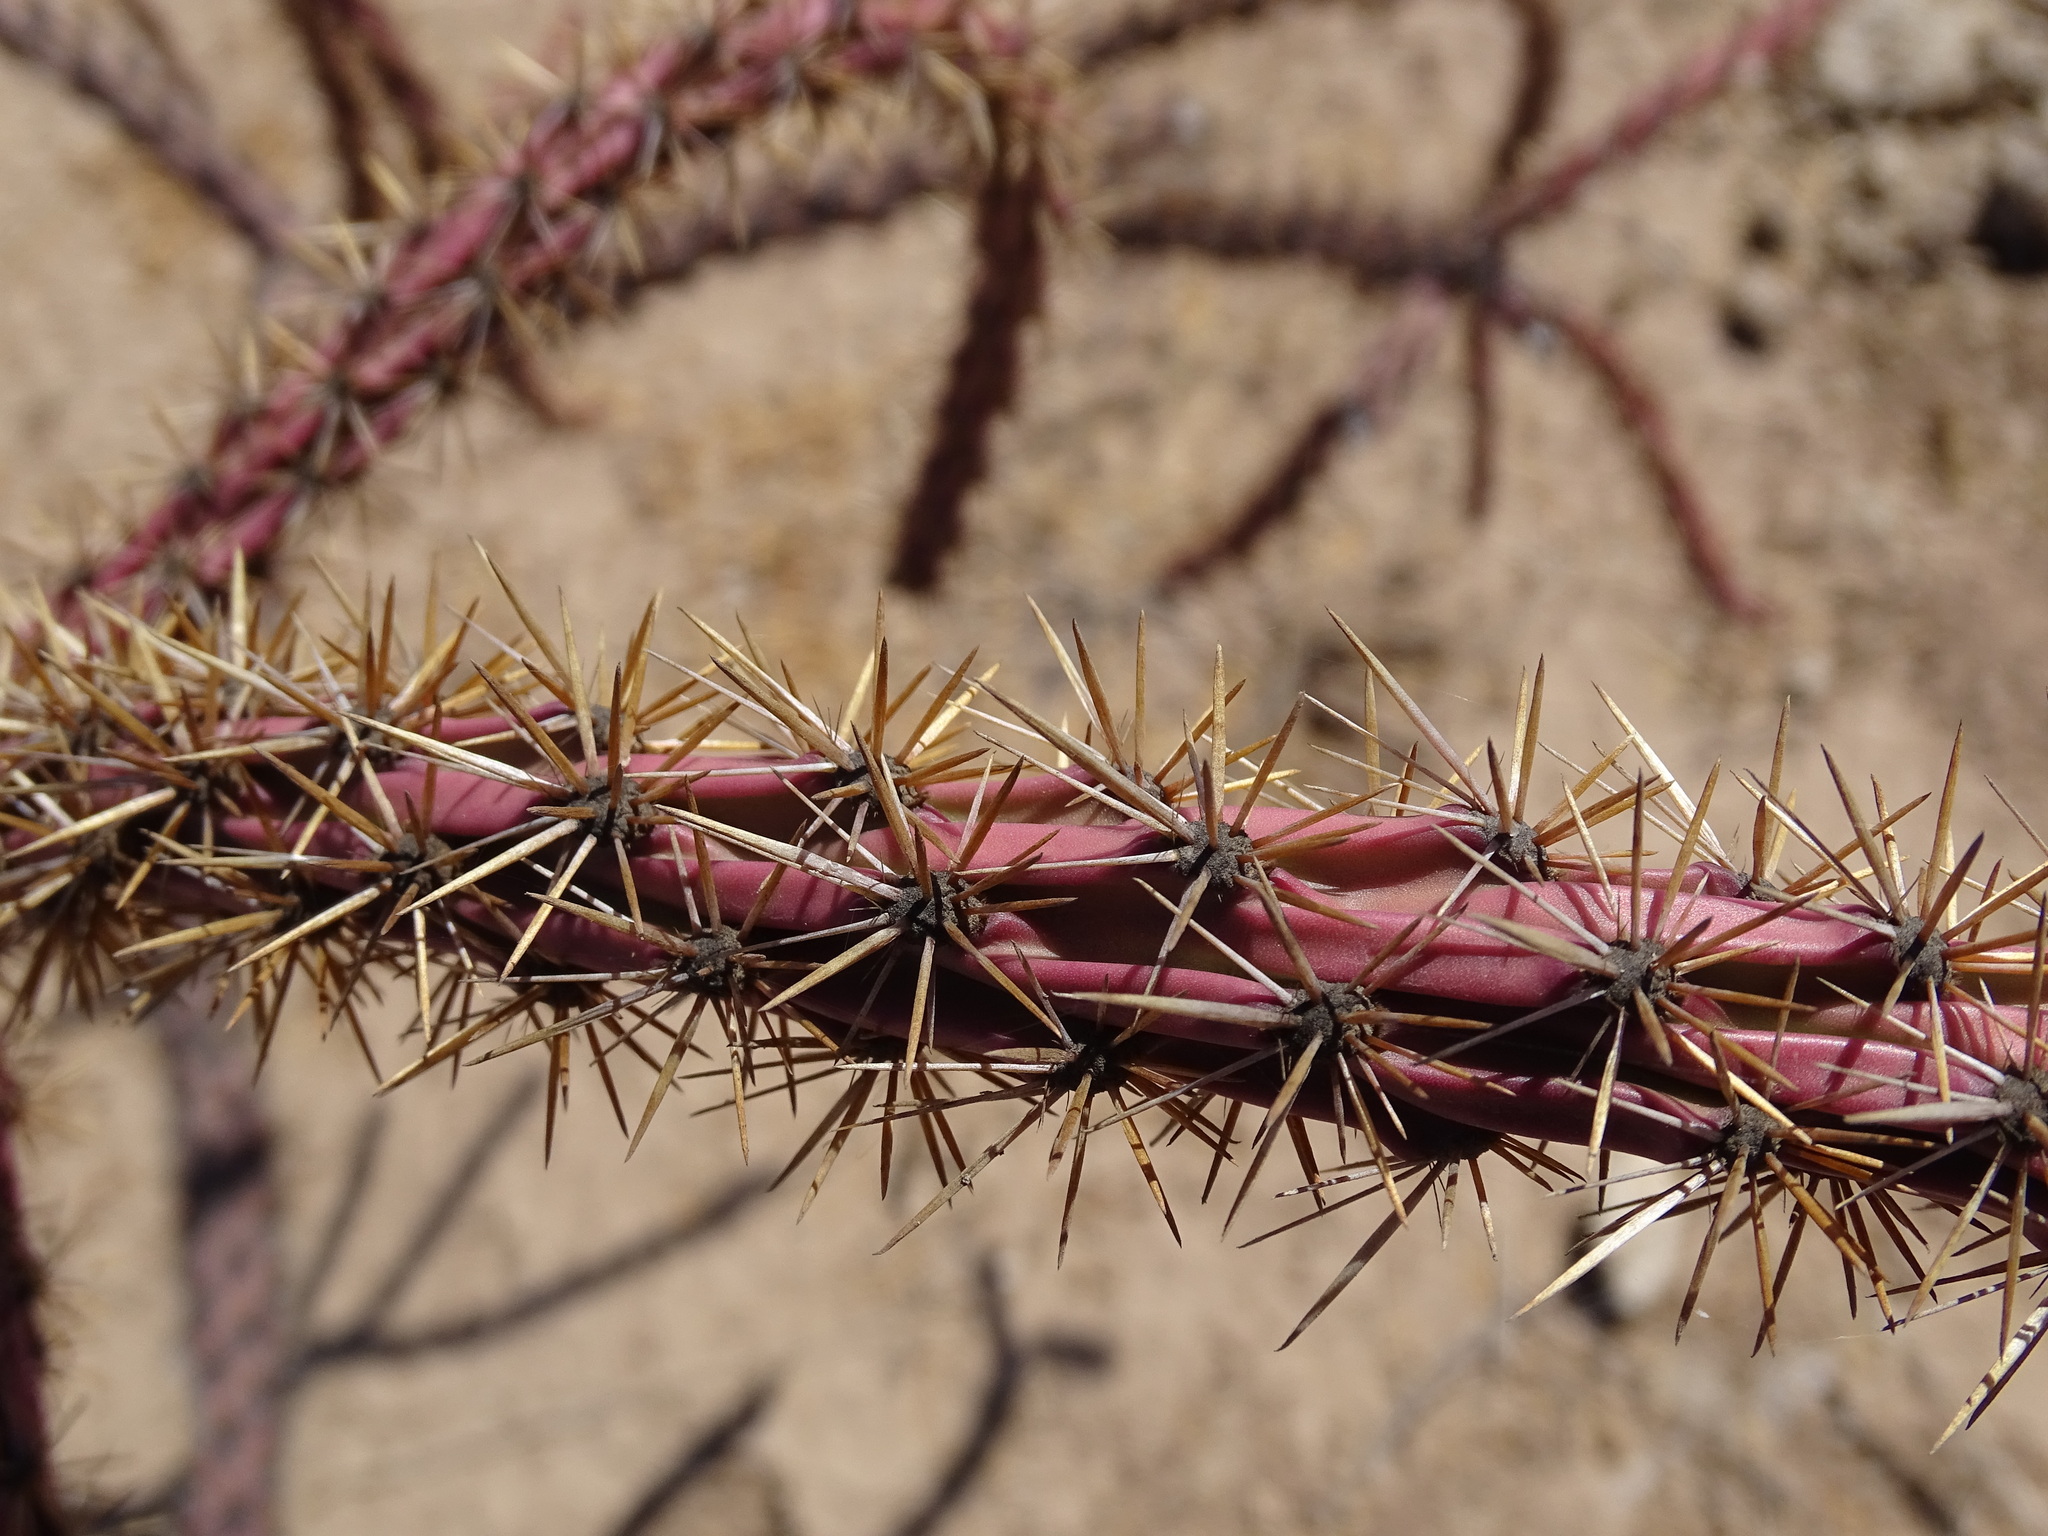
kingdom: Plantae
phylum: Tracheophyta
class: Magnoliopsida
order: Caryophyllales
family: Cactaceae
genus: Cylindropuntia
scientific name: Cylindropuntia thurberi
